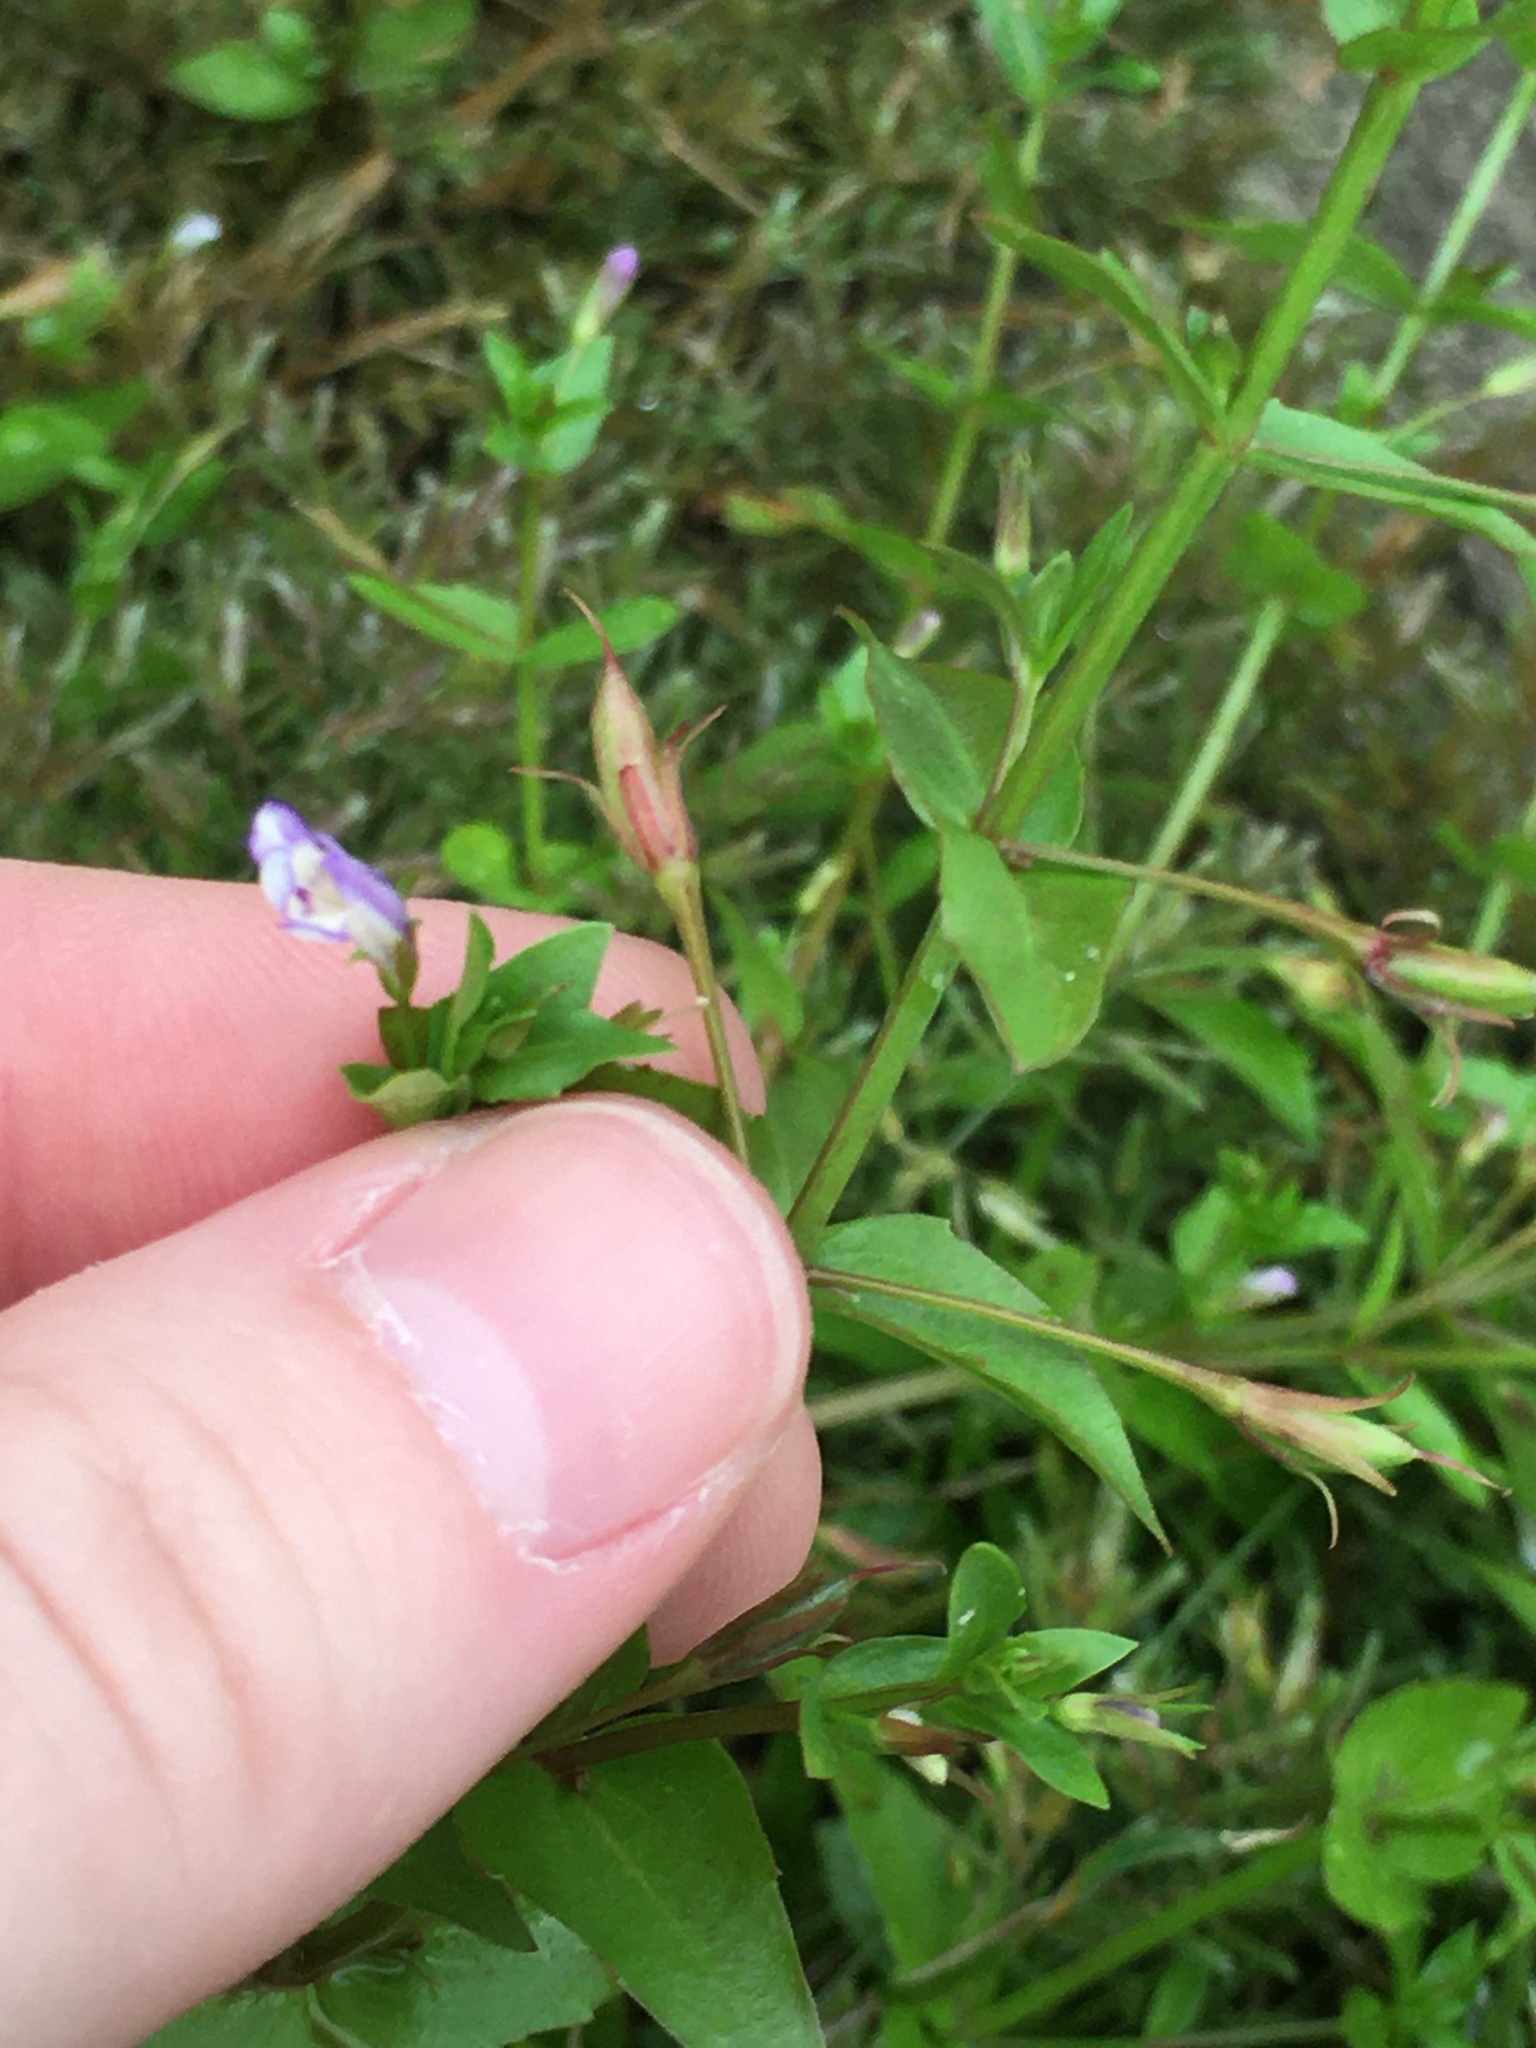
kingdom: Plantae
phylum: Tracheophyta
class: Magnoliopsida
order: Lamiales
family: Linderniaceae
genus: Lindernia
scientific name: Lindernia dubia
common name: Annual false pimpernel
